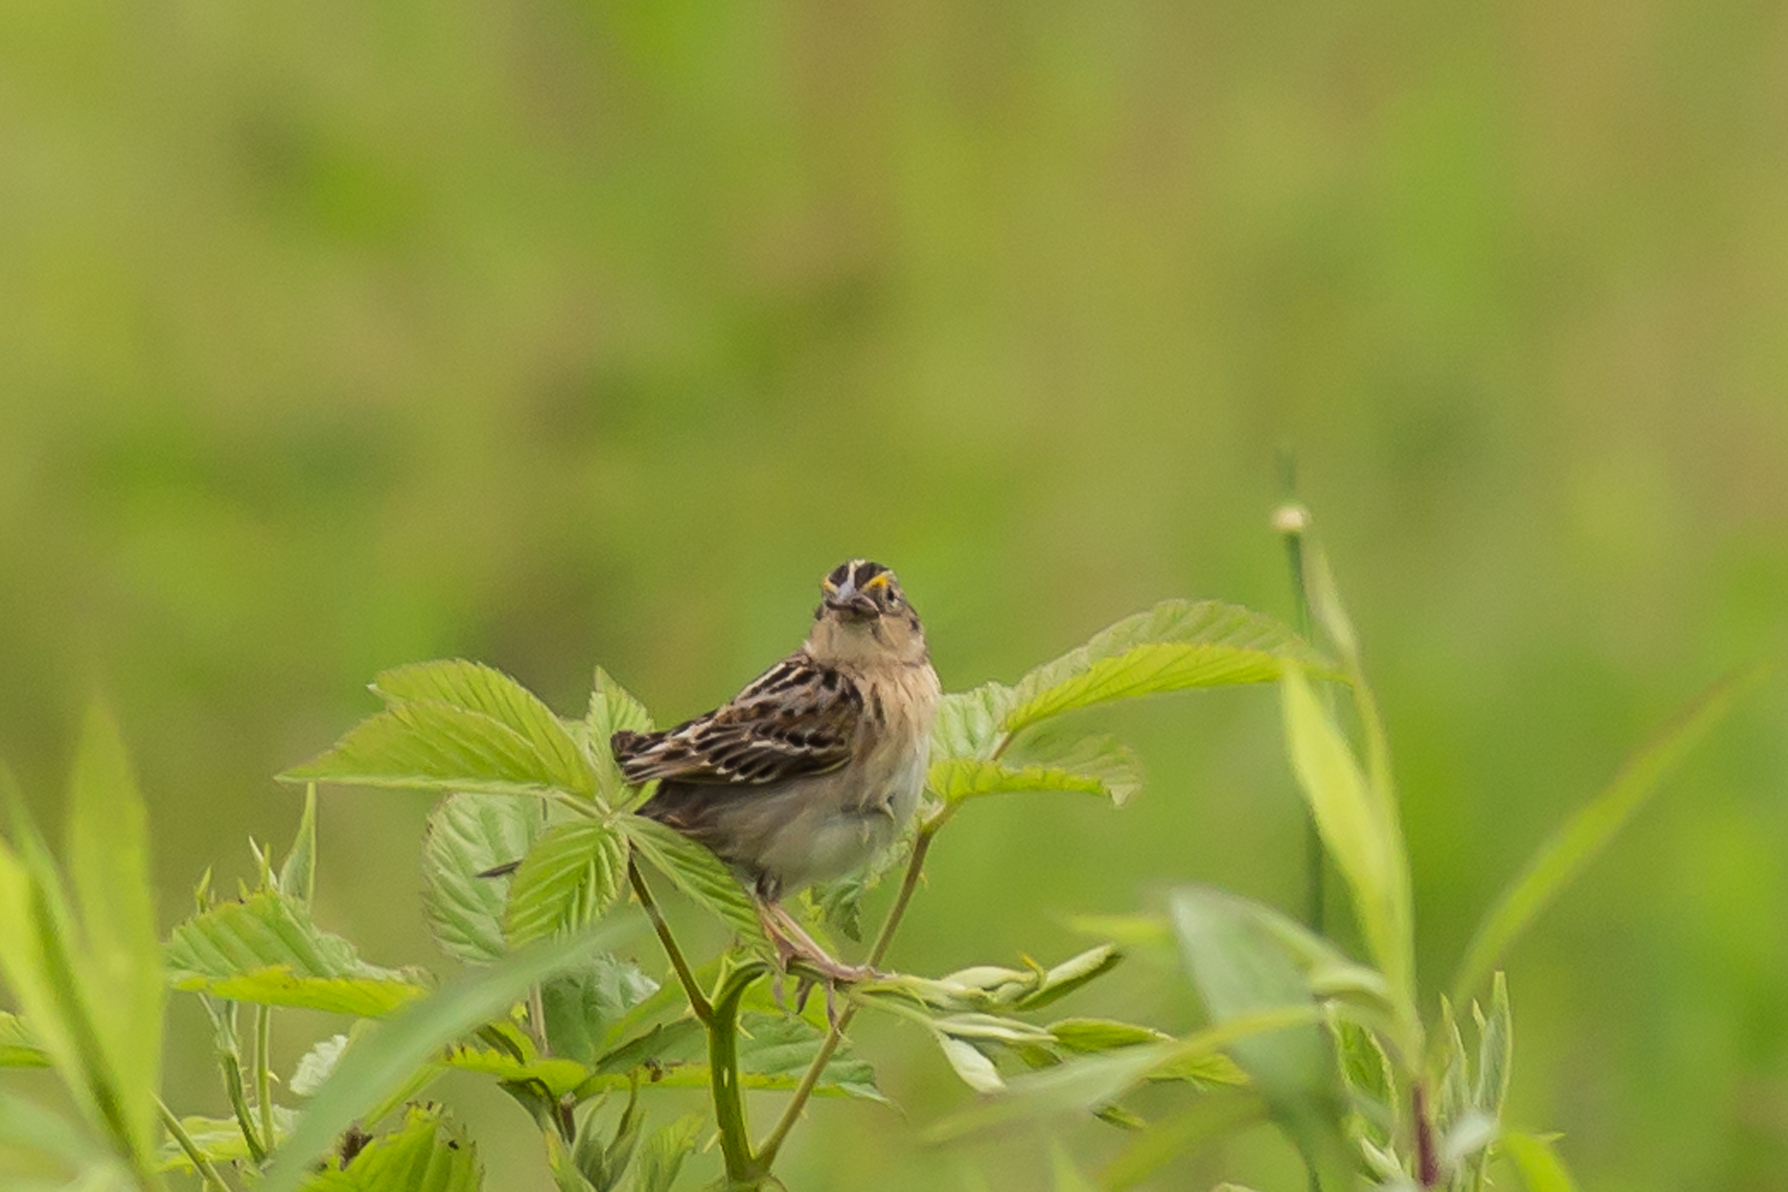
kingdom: Animalia
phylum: Chordata
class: Aves
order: Passeriformes
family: Passerellidae
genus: Ammodramus
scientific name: Ammodramus savannarum
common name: Grasshopper sparrow
